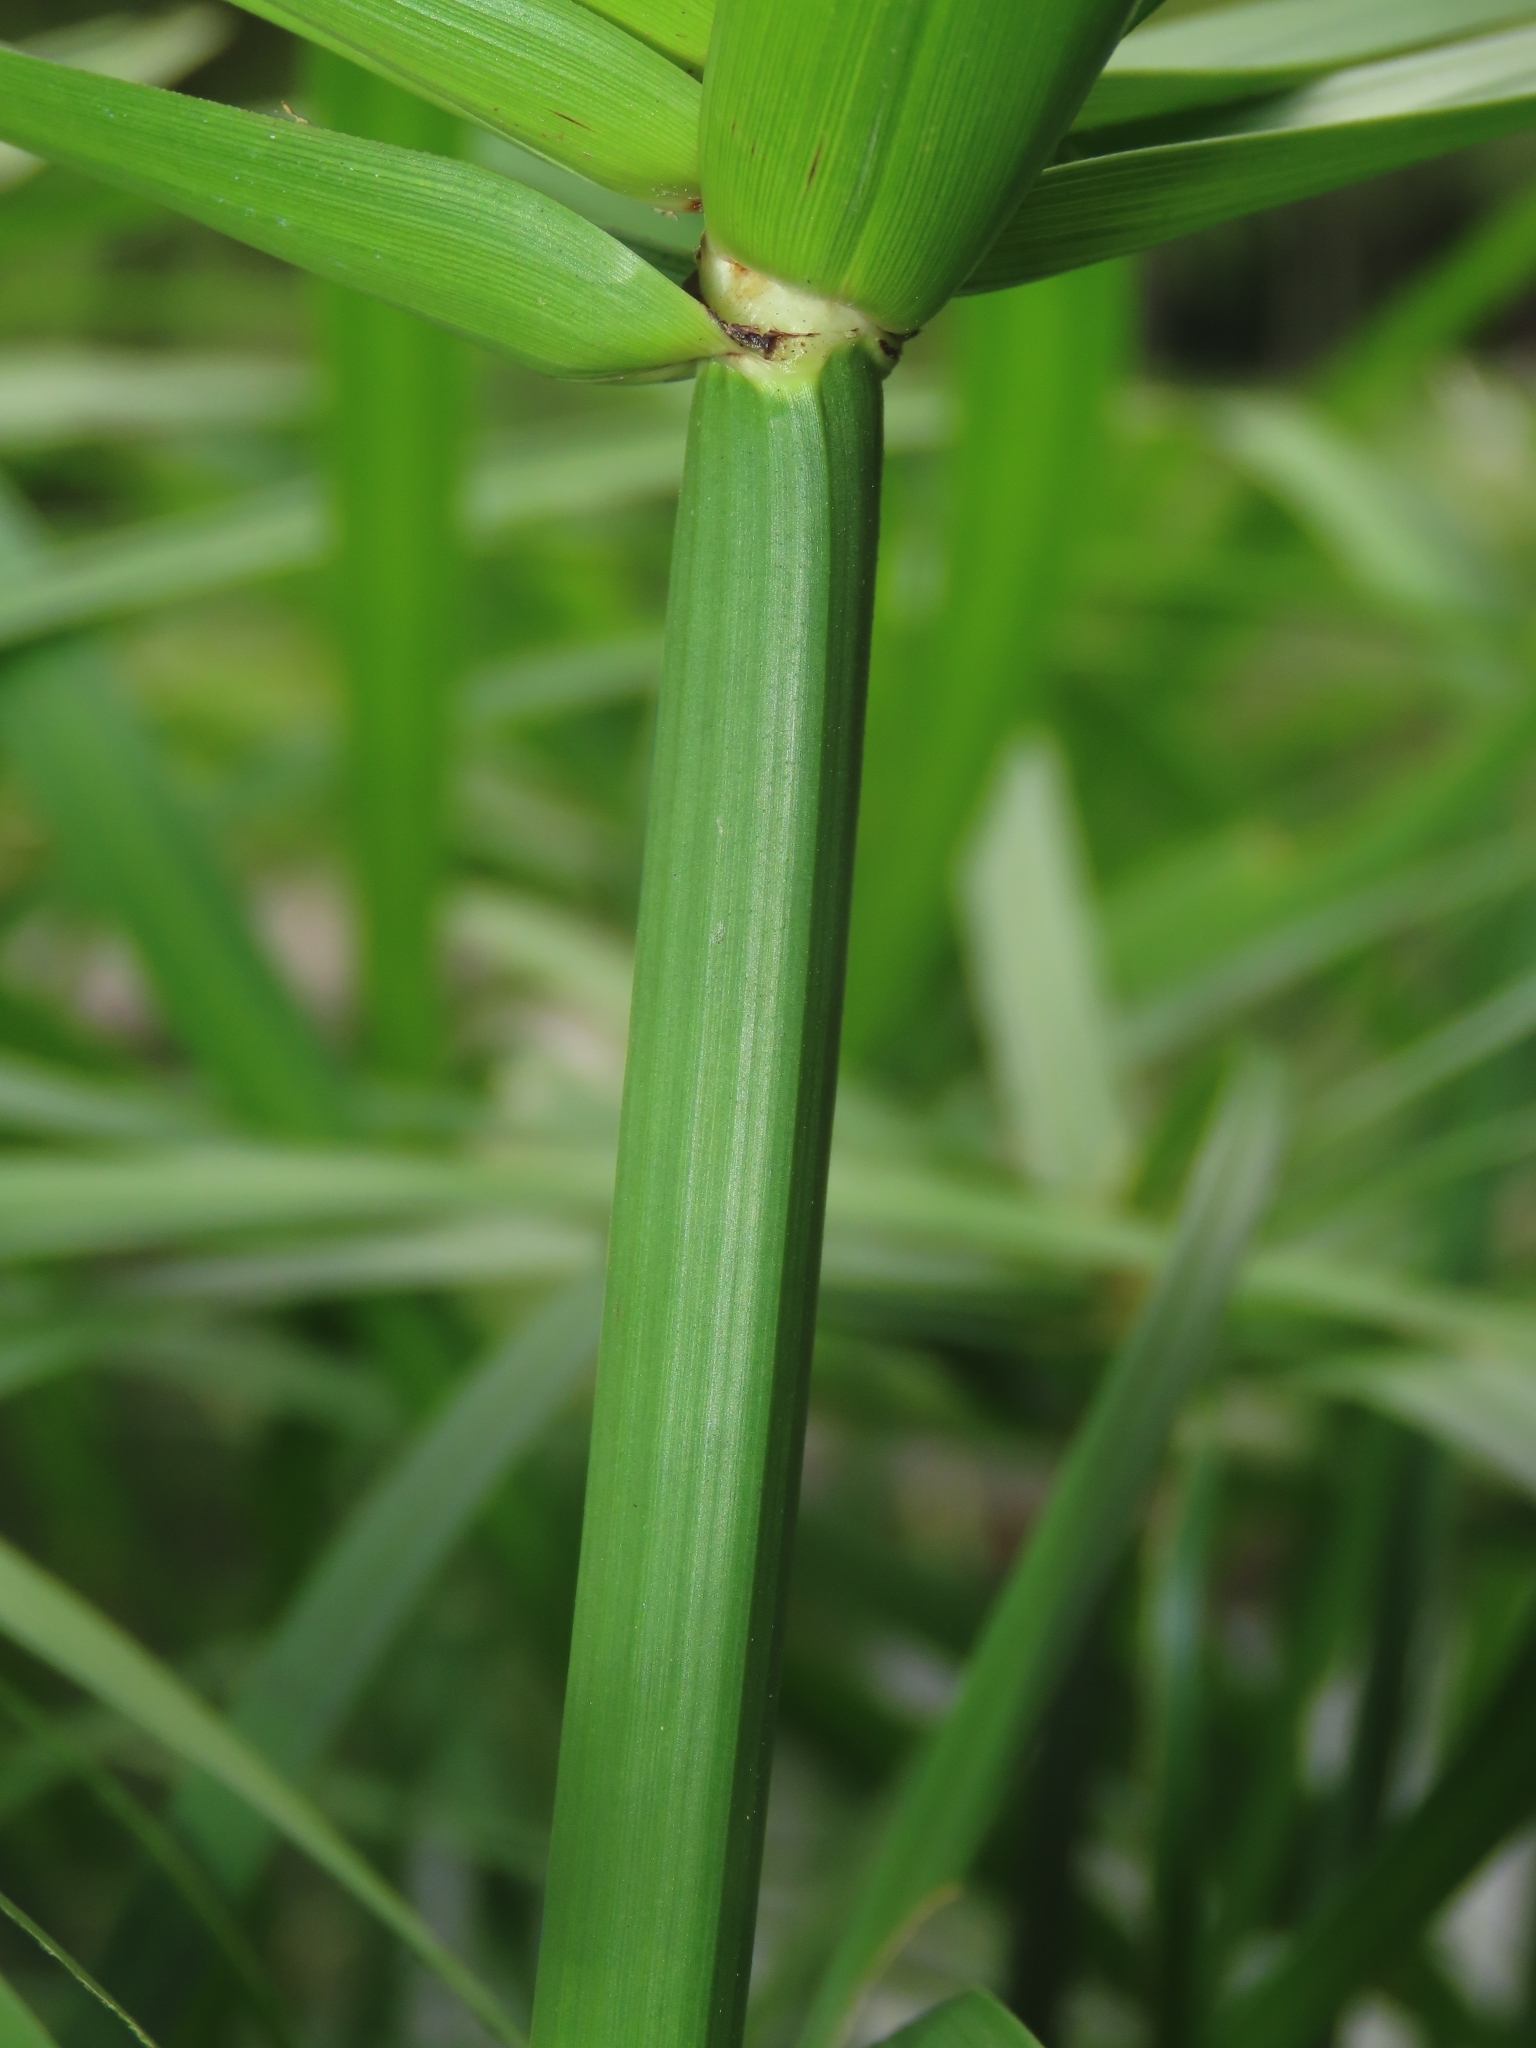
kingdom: Plantae
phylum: Tracheophyta
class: Liliopsida
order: Poales
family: Cyperaceae
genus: Cyperus
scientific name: Cyperus alternifolius
